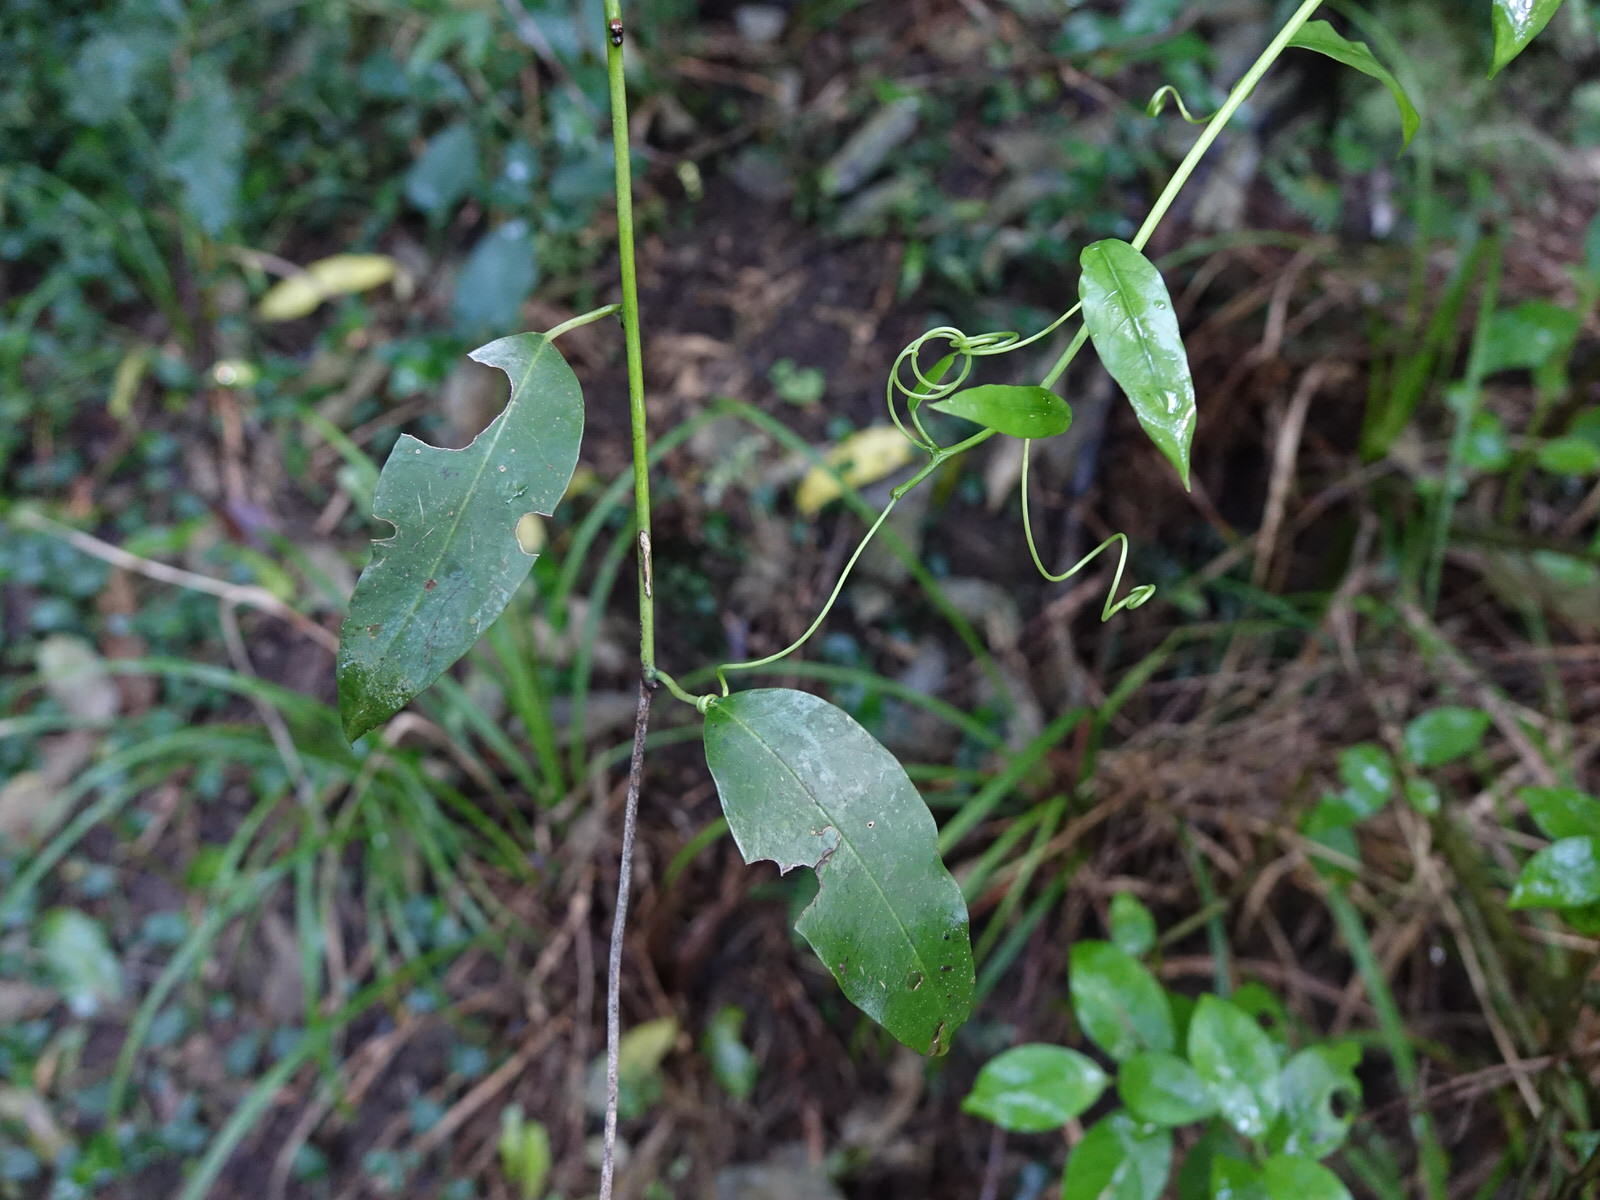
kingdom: Plantae
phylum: Tracheophyta
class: Magnoliopsida
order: Malpighiales
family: Passifloraceae
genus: Passiflora
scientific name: Passiflora tetrandra
